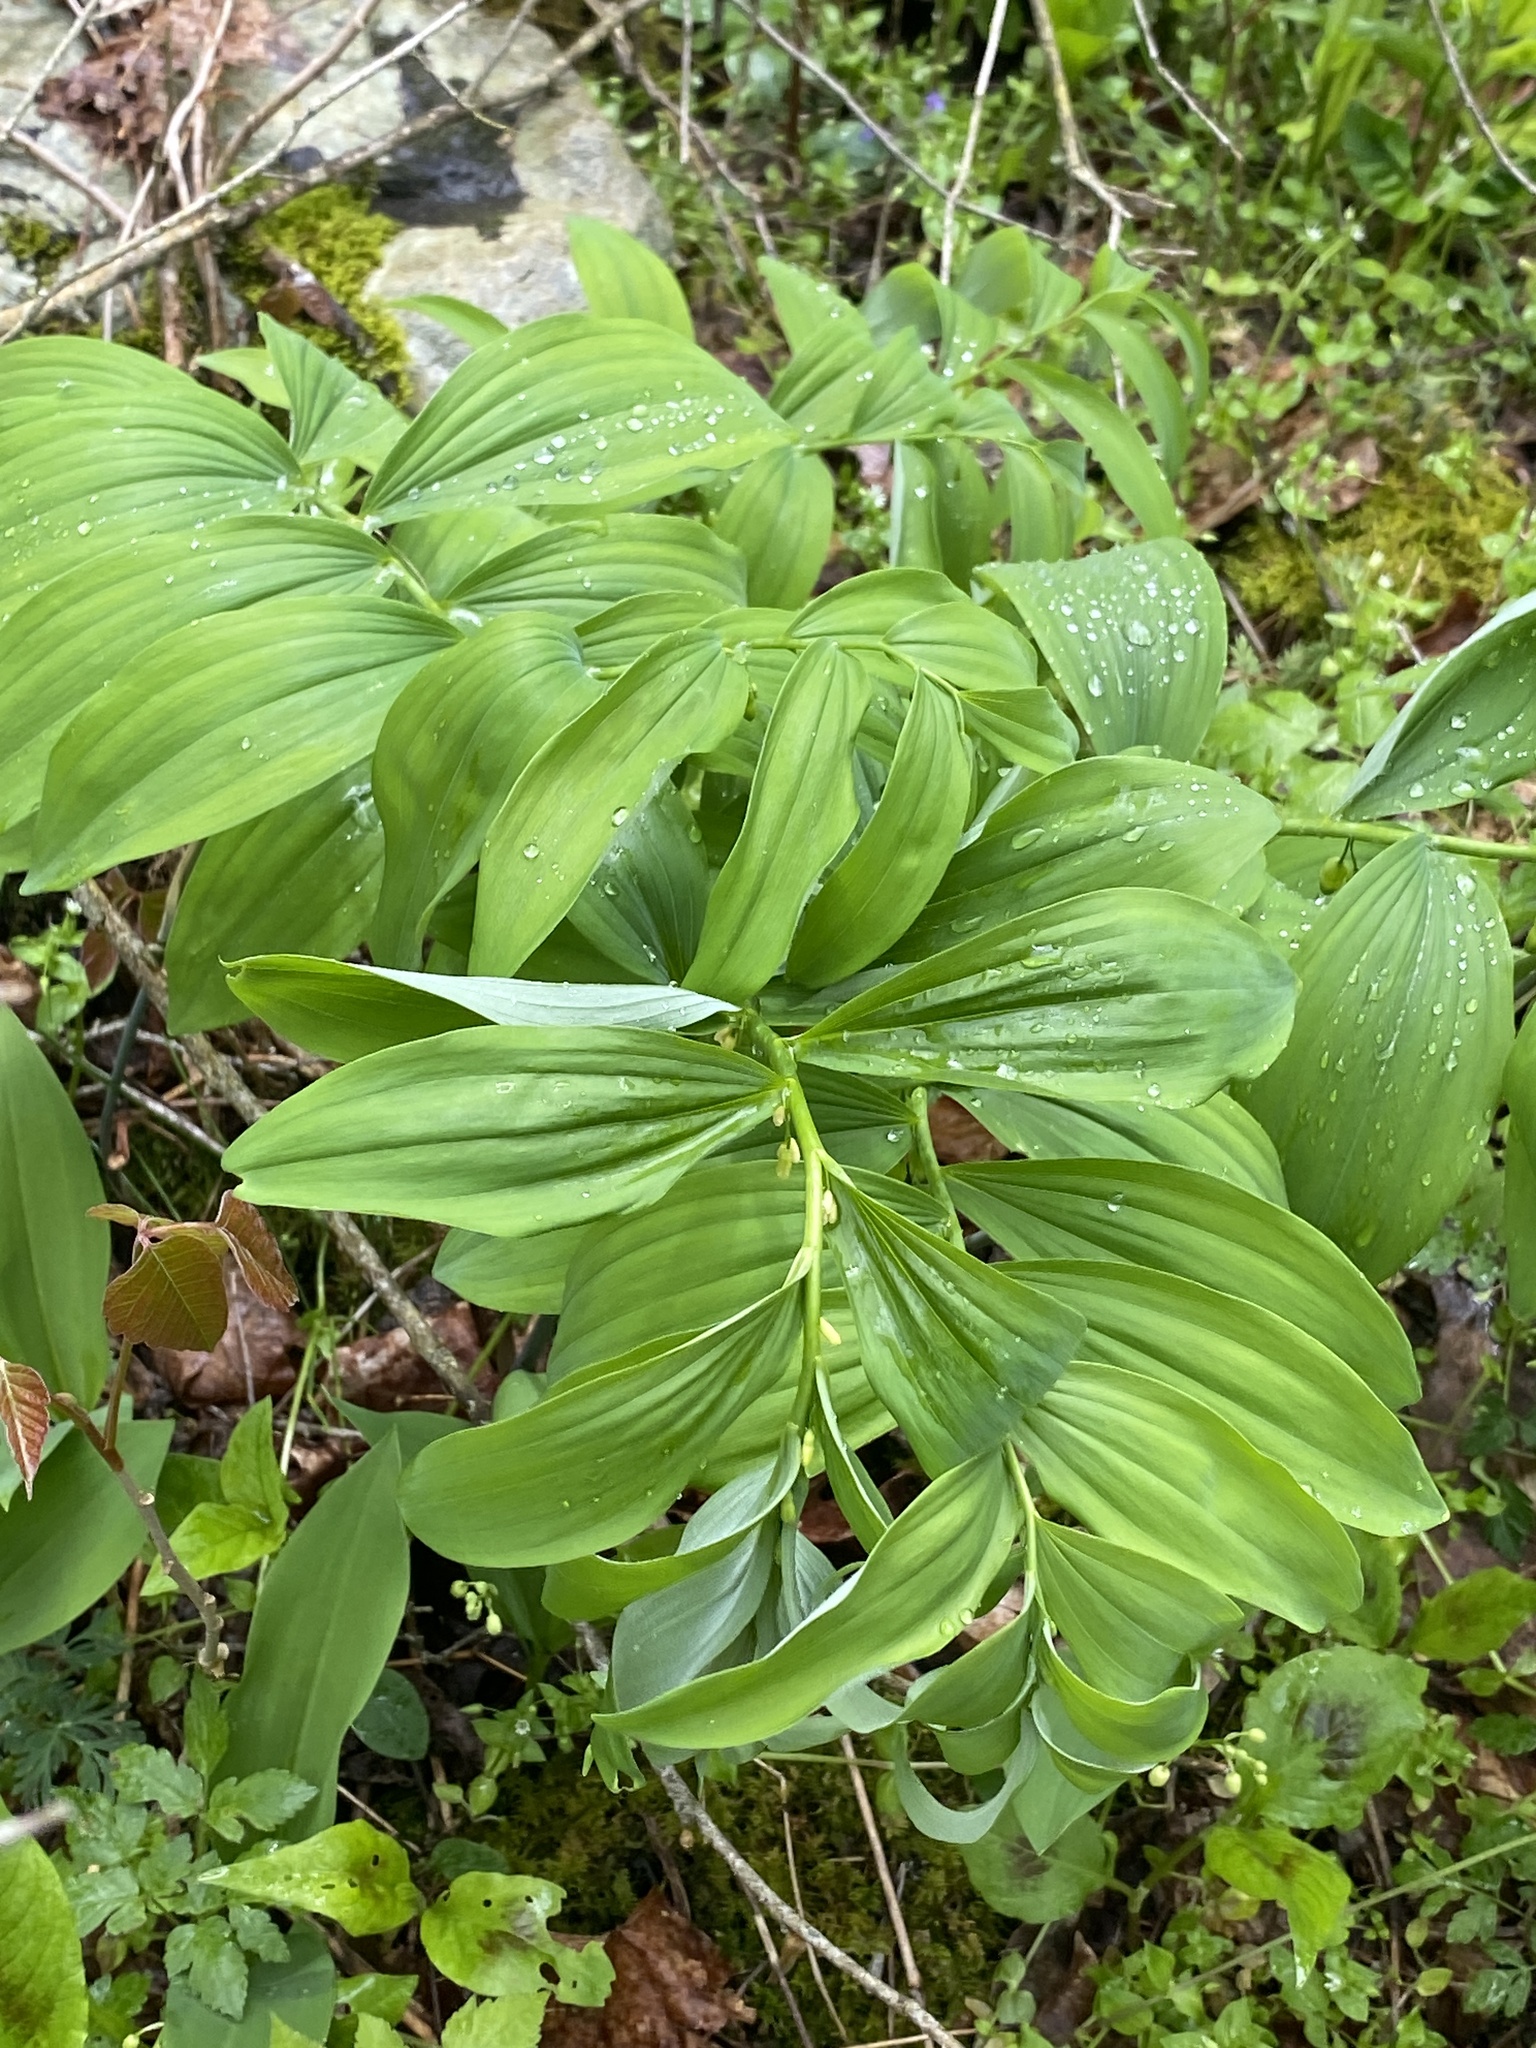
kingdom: Plantae
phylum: Tracheophyta
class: Liliopsida
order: Asparagales
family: Asparagaceae
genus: Polygonatum
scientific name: Polygonatum pubescens
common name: Downy solomon's seal
